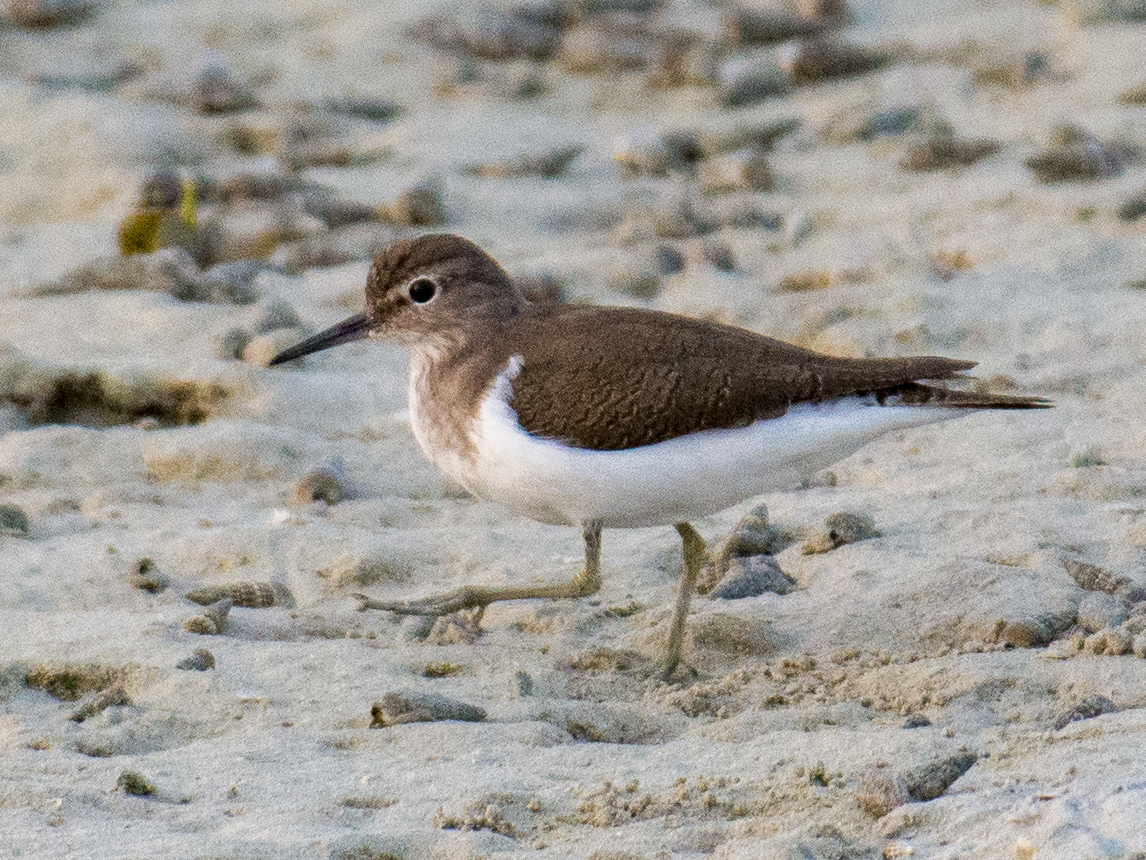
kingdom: Animalia
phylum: Chordata
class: Aves
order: Charadriiformes
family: Scolopacidae
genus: Actitis
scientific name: Actitis hypoleucos
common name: Common sandpiper
